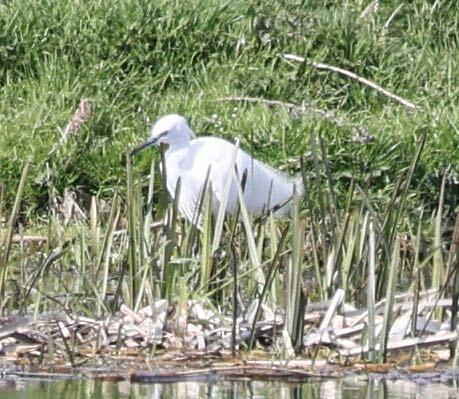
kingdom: Animalia
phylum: Chordata
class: Aves
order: Pelecaniformes
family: Ardeidae
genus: Egretta
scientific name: Egretta garzetta
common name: Little egret
